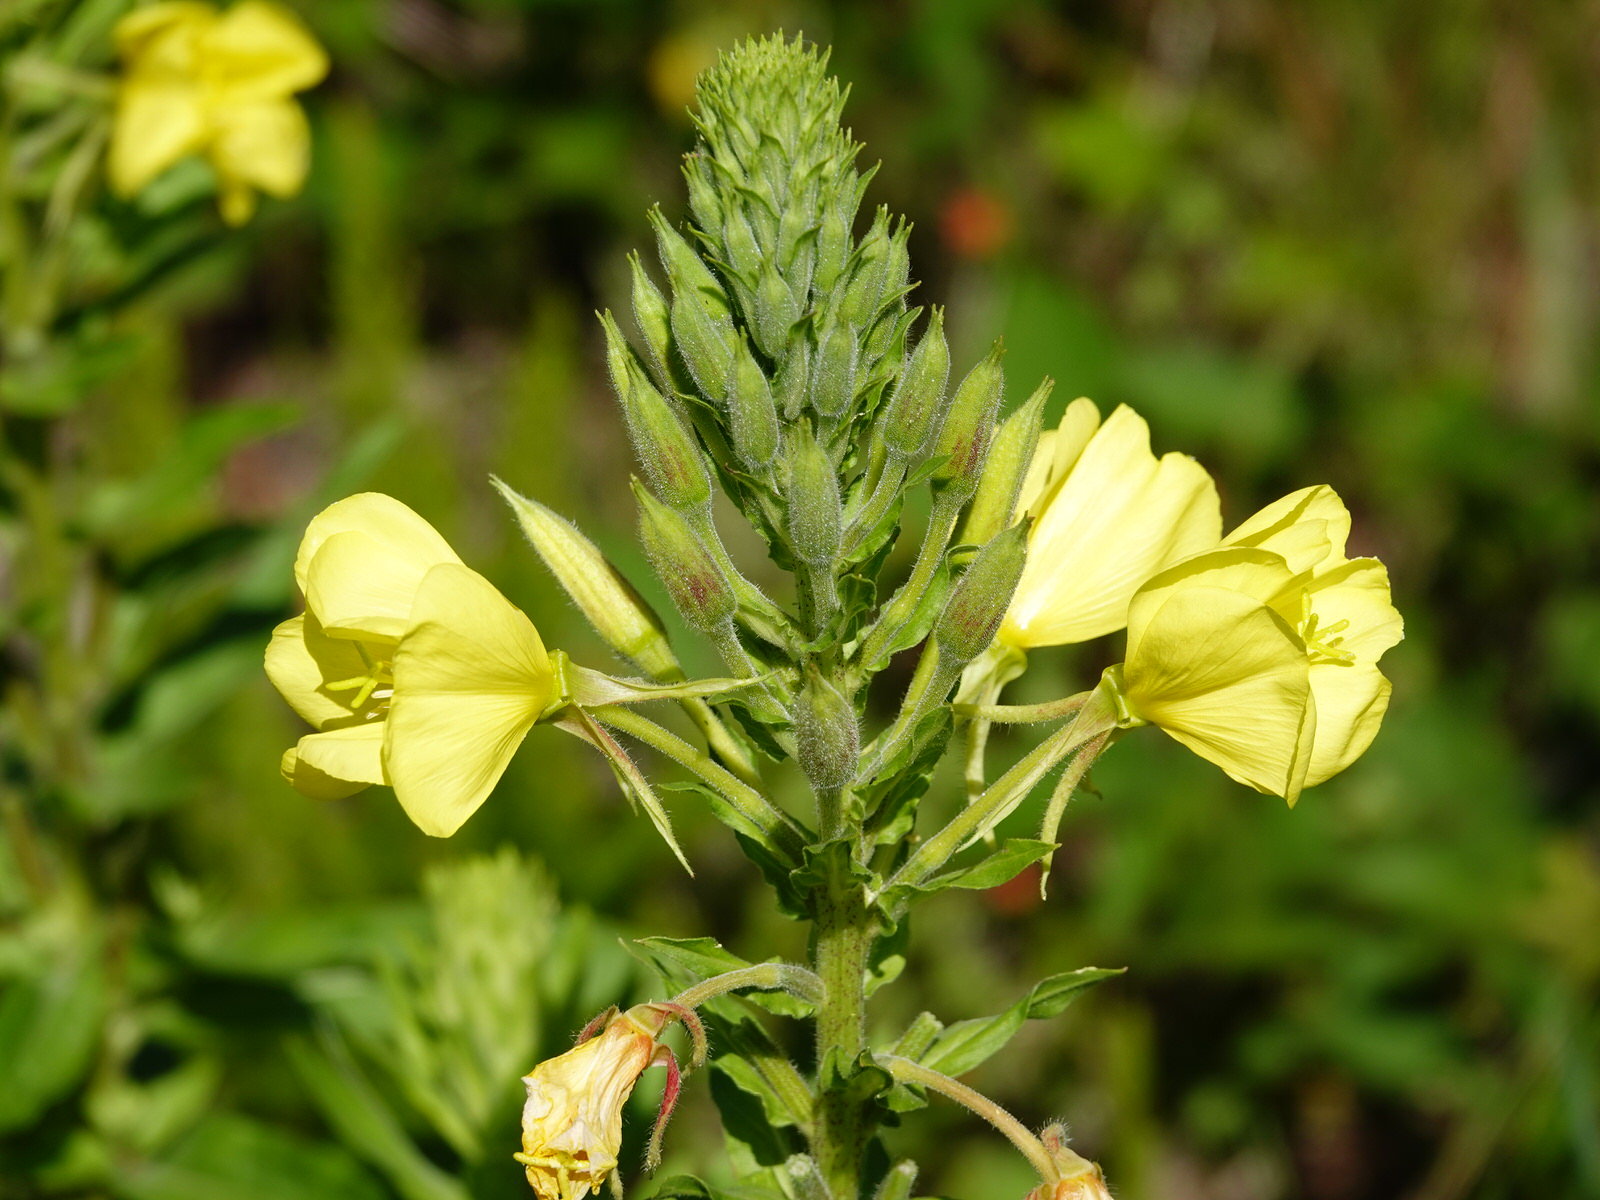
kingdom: Plantae
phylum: Tracheophyta
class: Magnoliopsida
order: Myrtales
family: Onagraceae
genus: Oenothera
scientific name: Oenothera glazioviana
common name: Large-flowered evening-primrose
